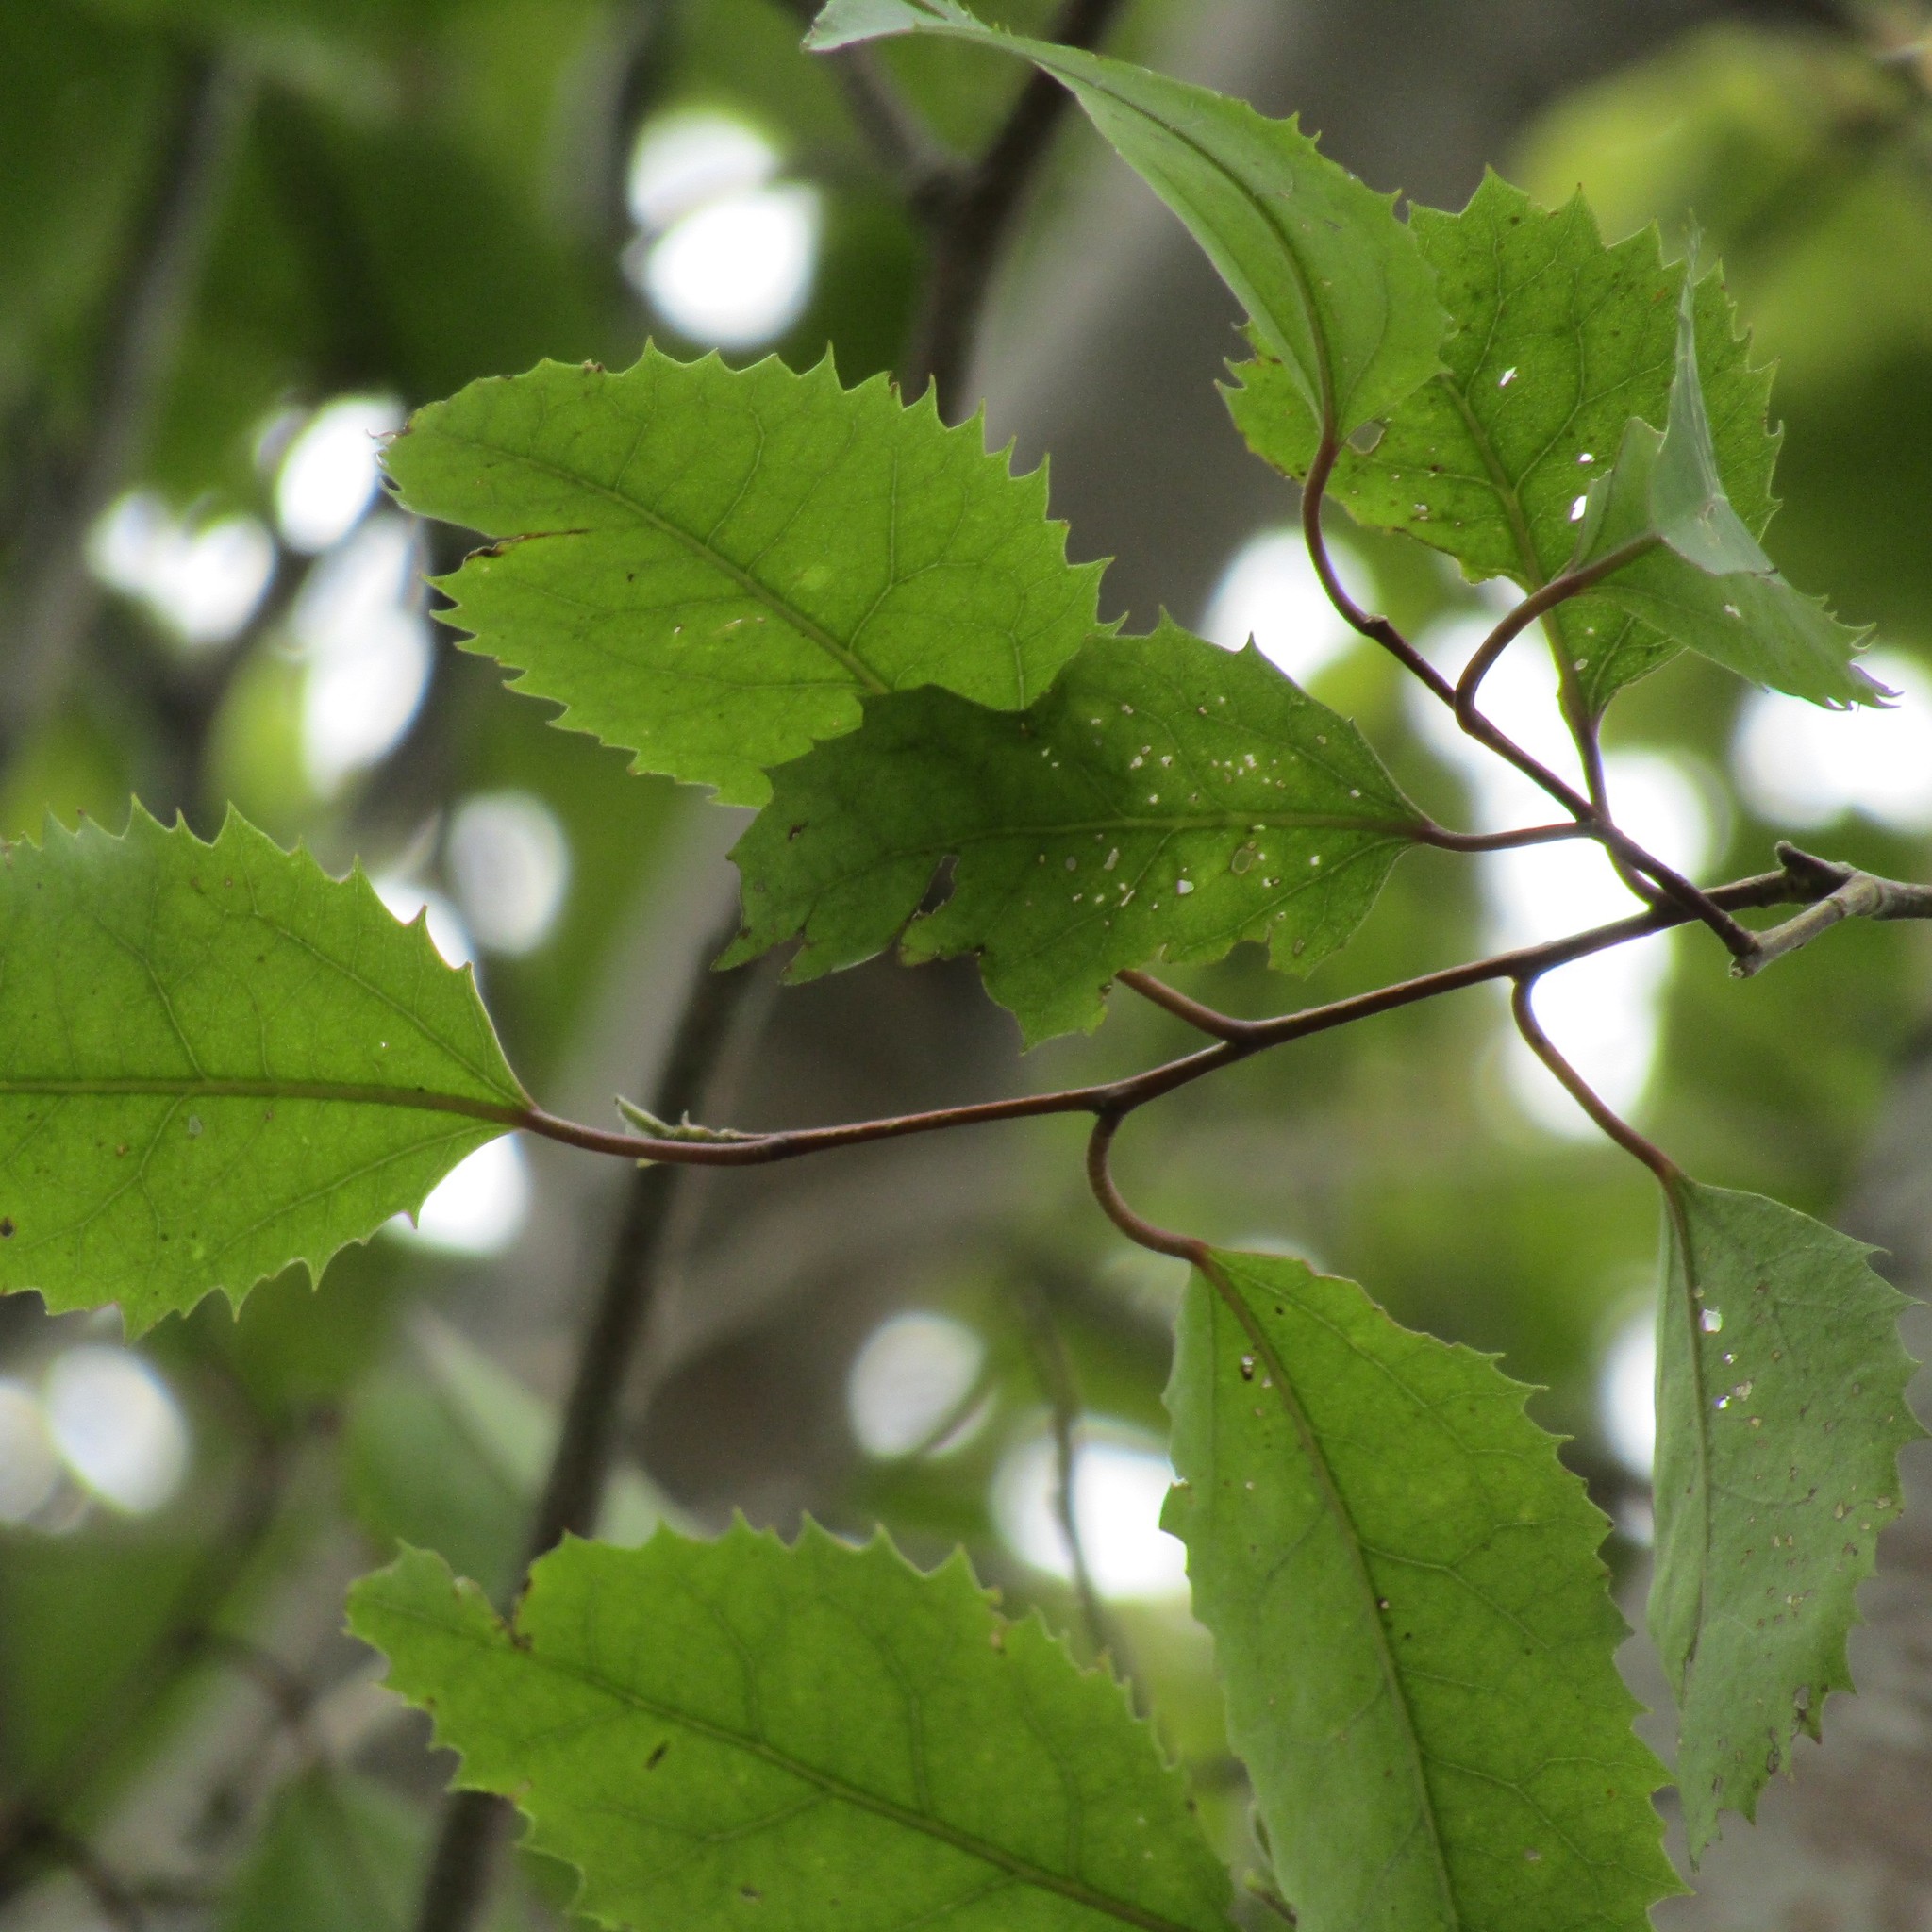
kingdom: Plantae
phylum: Tracheophyta
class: Magnoliopsida
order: Malvales
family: Malvaceae
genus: Hoheria
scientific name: Hoheria populnea
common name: Lacebark
